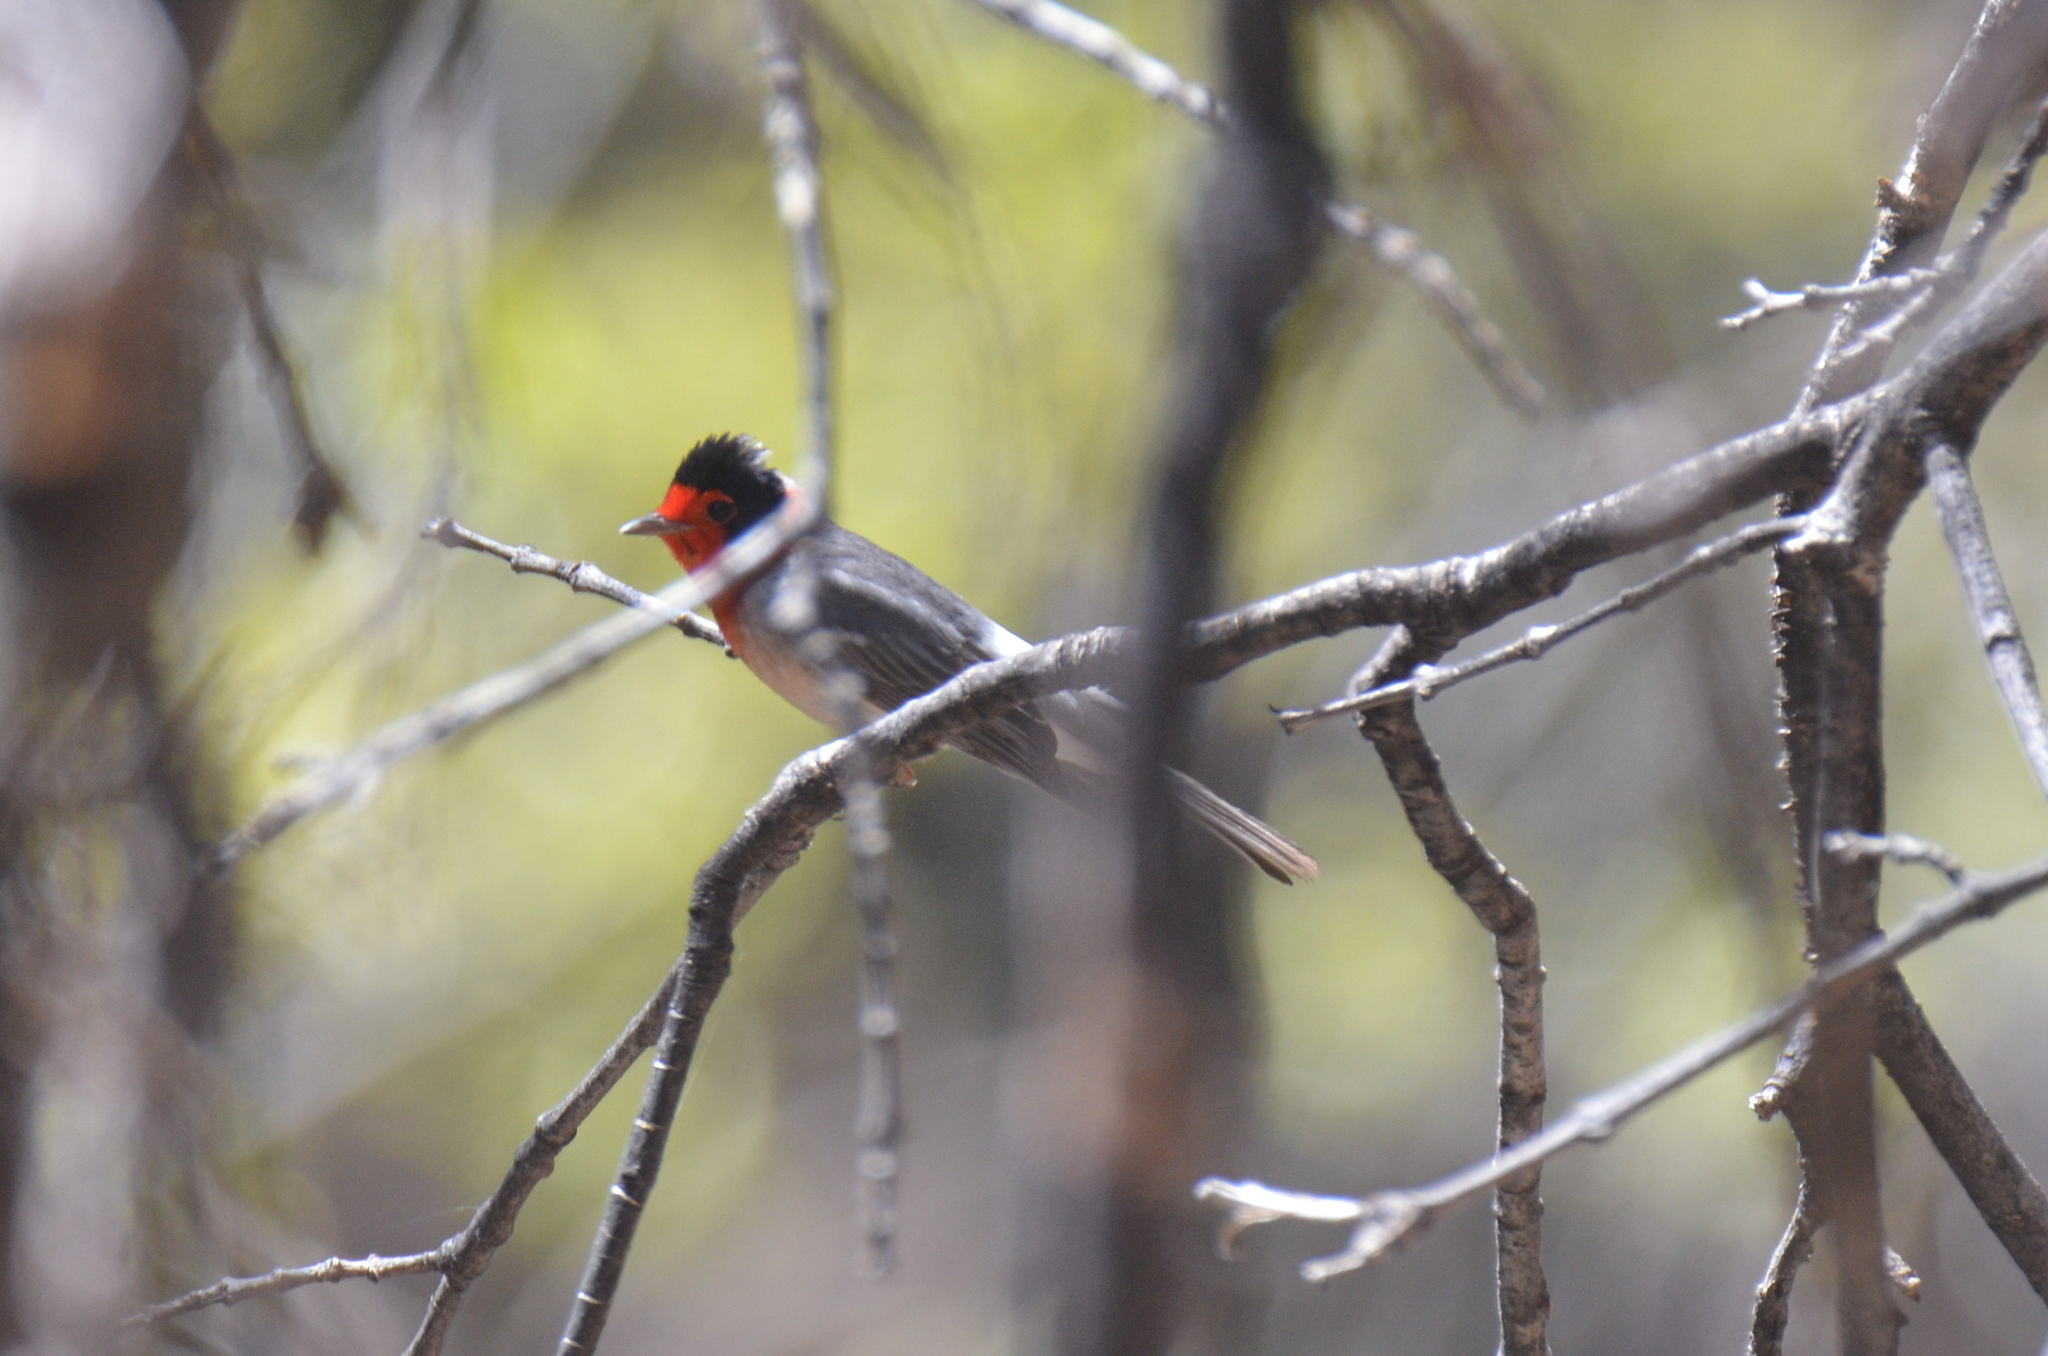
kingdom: Animalia
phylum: Chordata
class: Aves
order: Passeriformes
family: Parulidae
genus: Cardellina
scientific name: Cardellina rubrifrons
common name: Red-faced warbler
